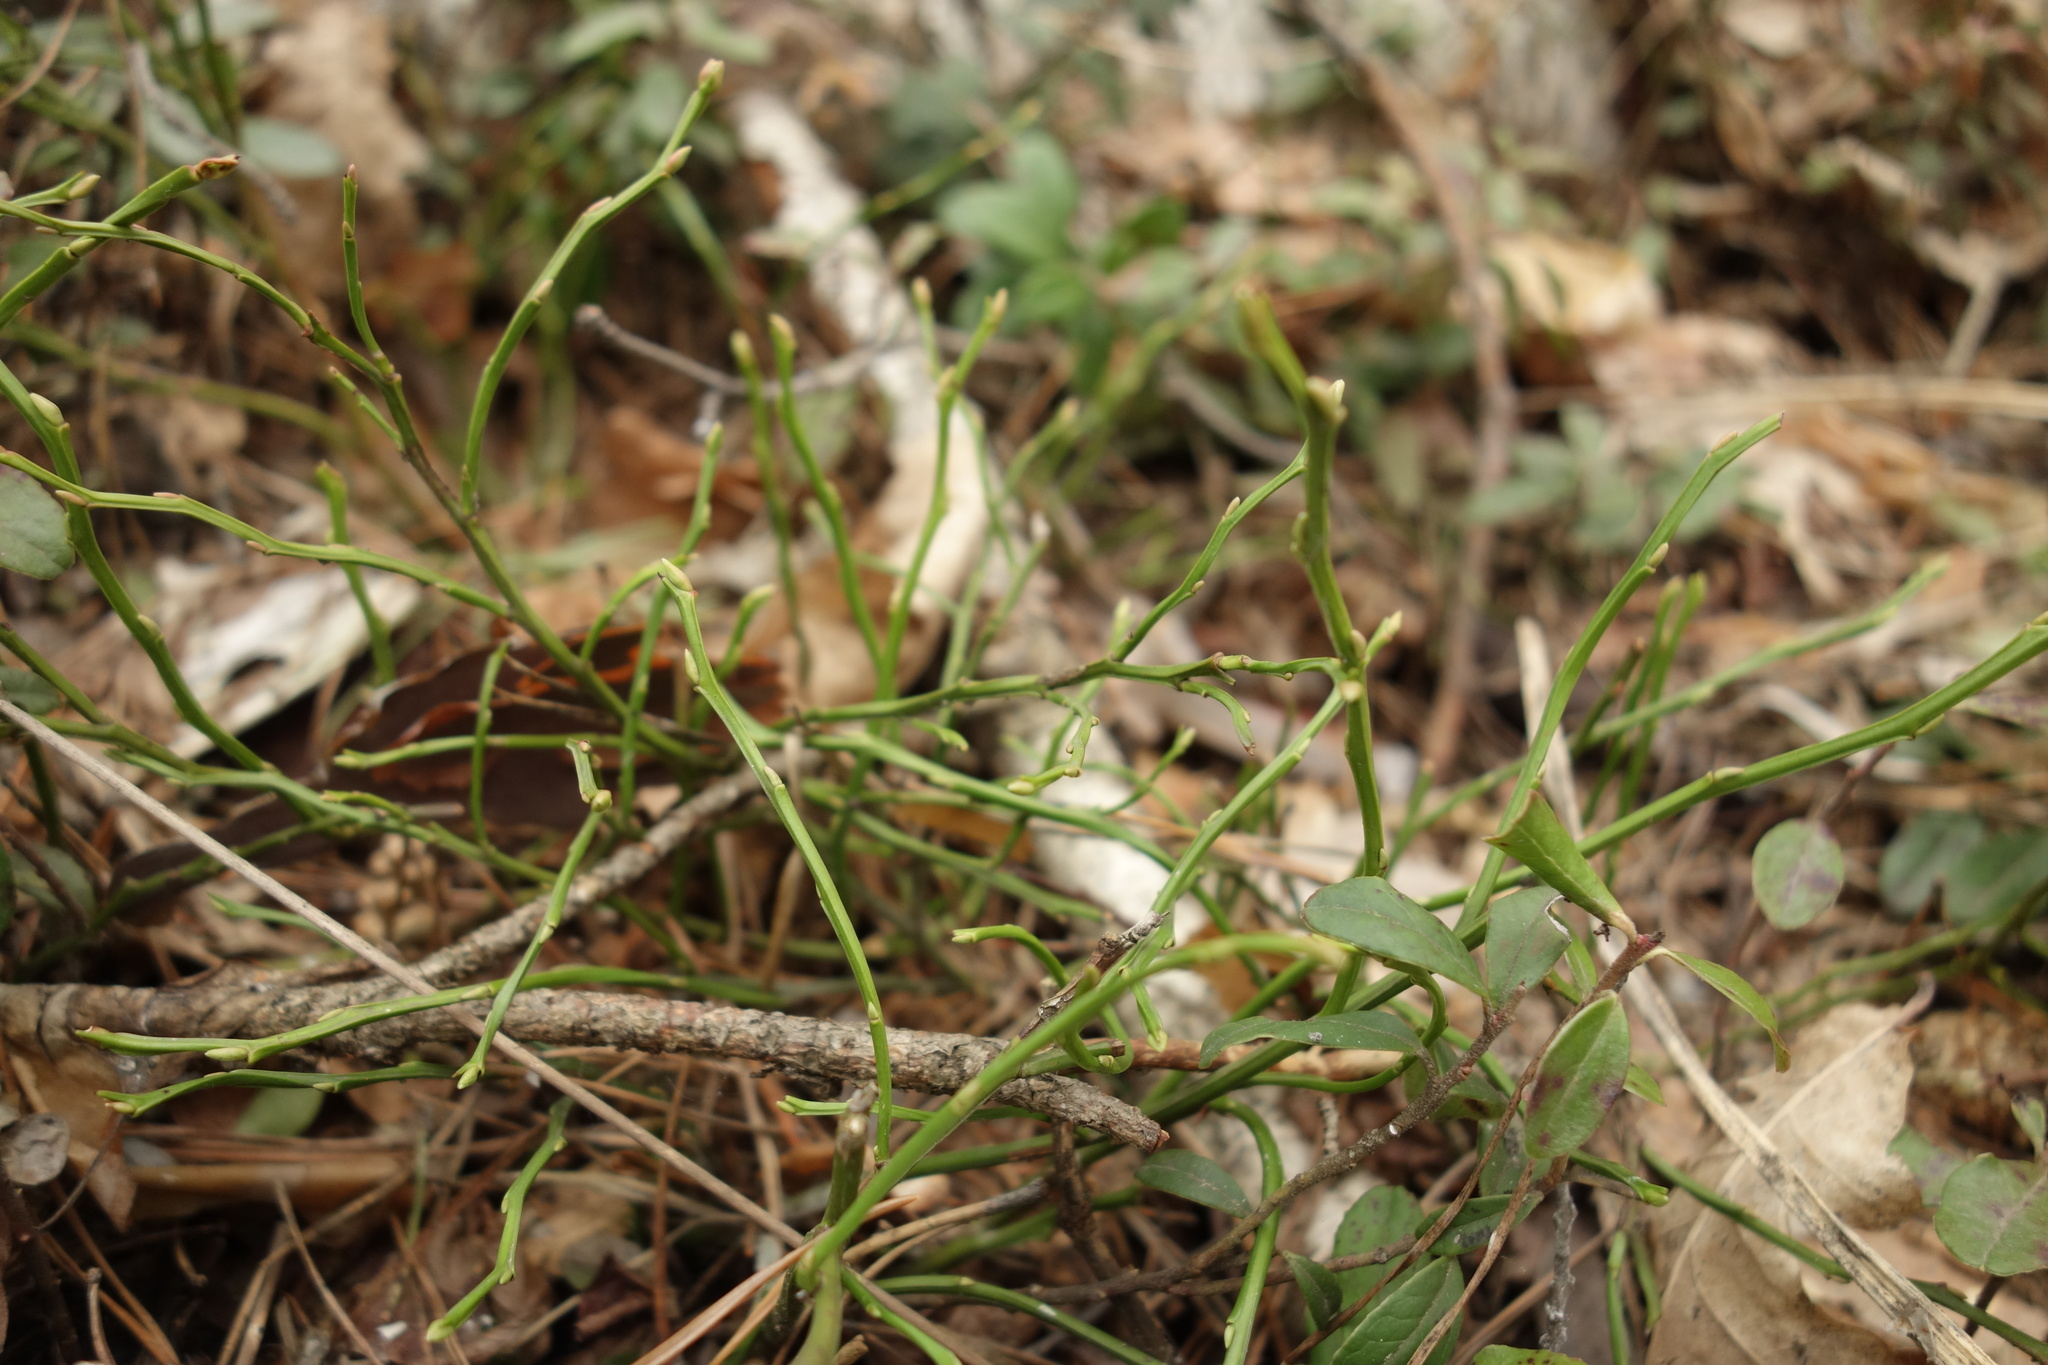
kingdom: Plantae
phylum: Tracheophyta
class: Magnoliopsida
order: Ericales
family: Ericaceae
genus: Vaccinium
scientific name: Vaccinium myrtillus
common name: Bilberry
